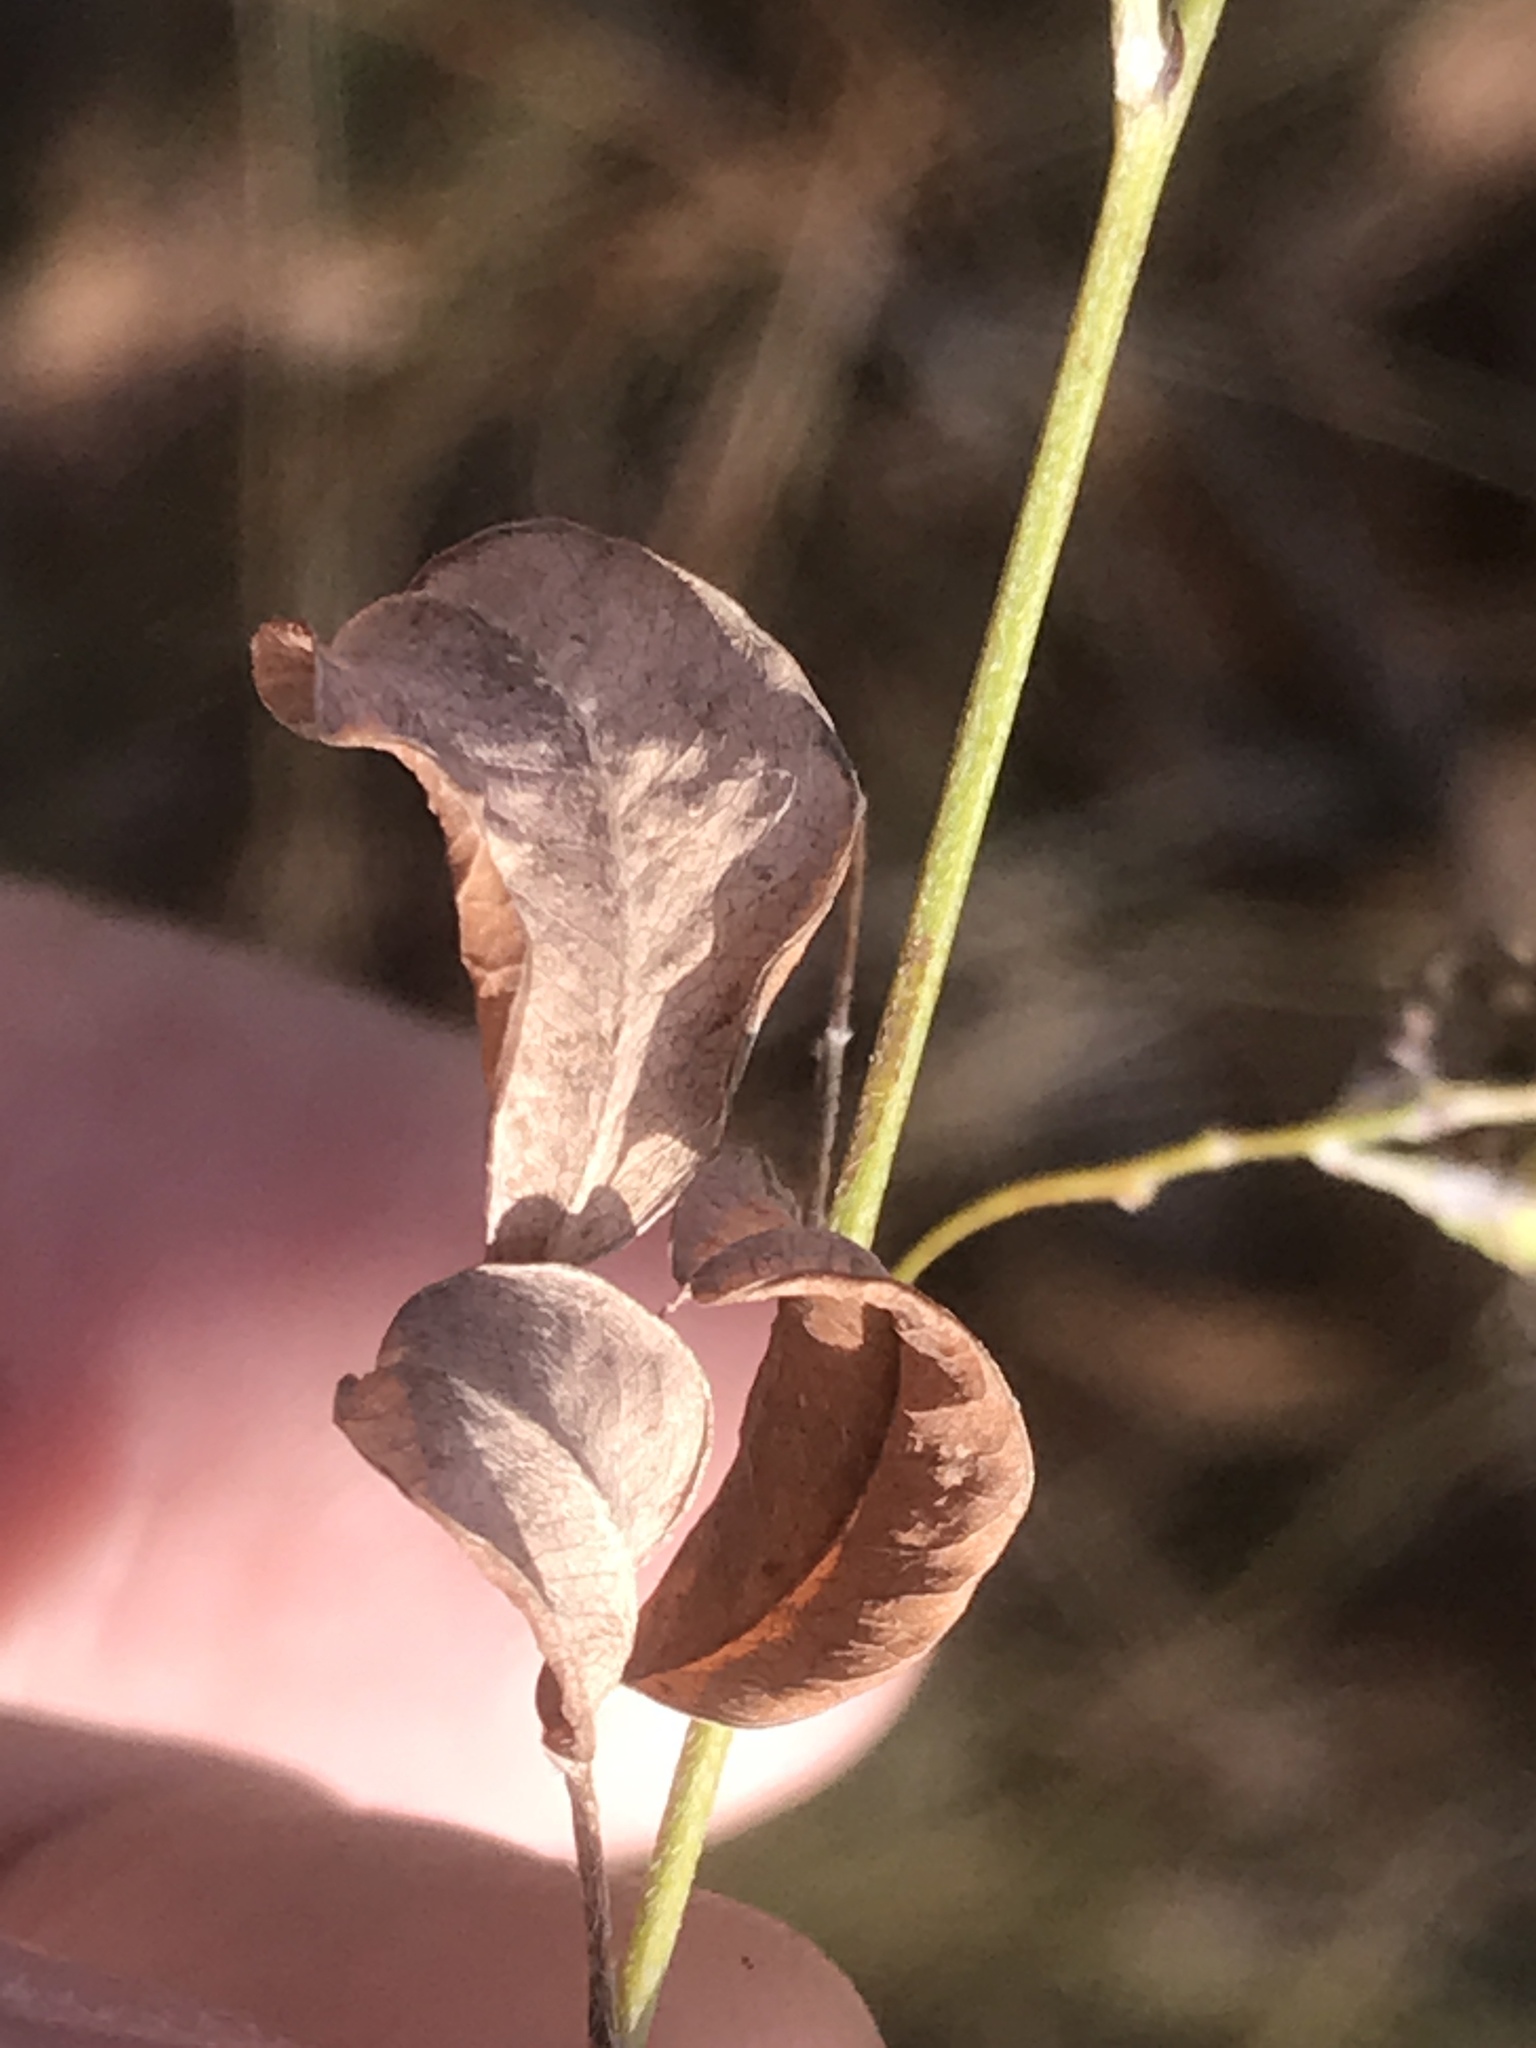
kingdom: Plantae
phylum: Tracheophyta
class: Magnoliopsida
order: Fabales
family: Fabaceae
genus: Lespedeza
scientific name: Lespedeza bicolor
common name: Shrub lespedeza
